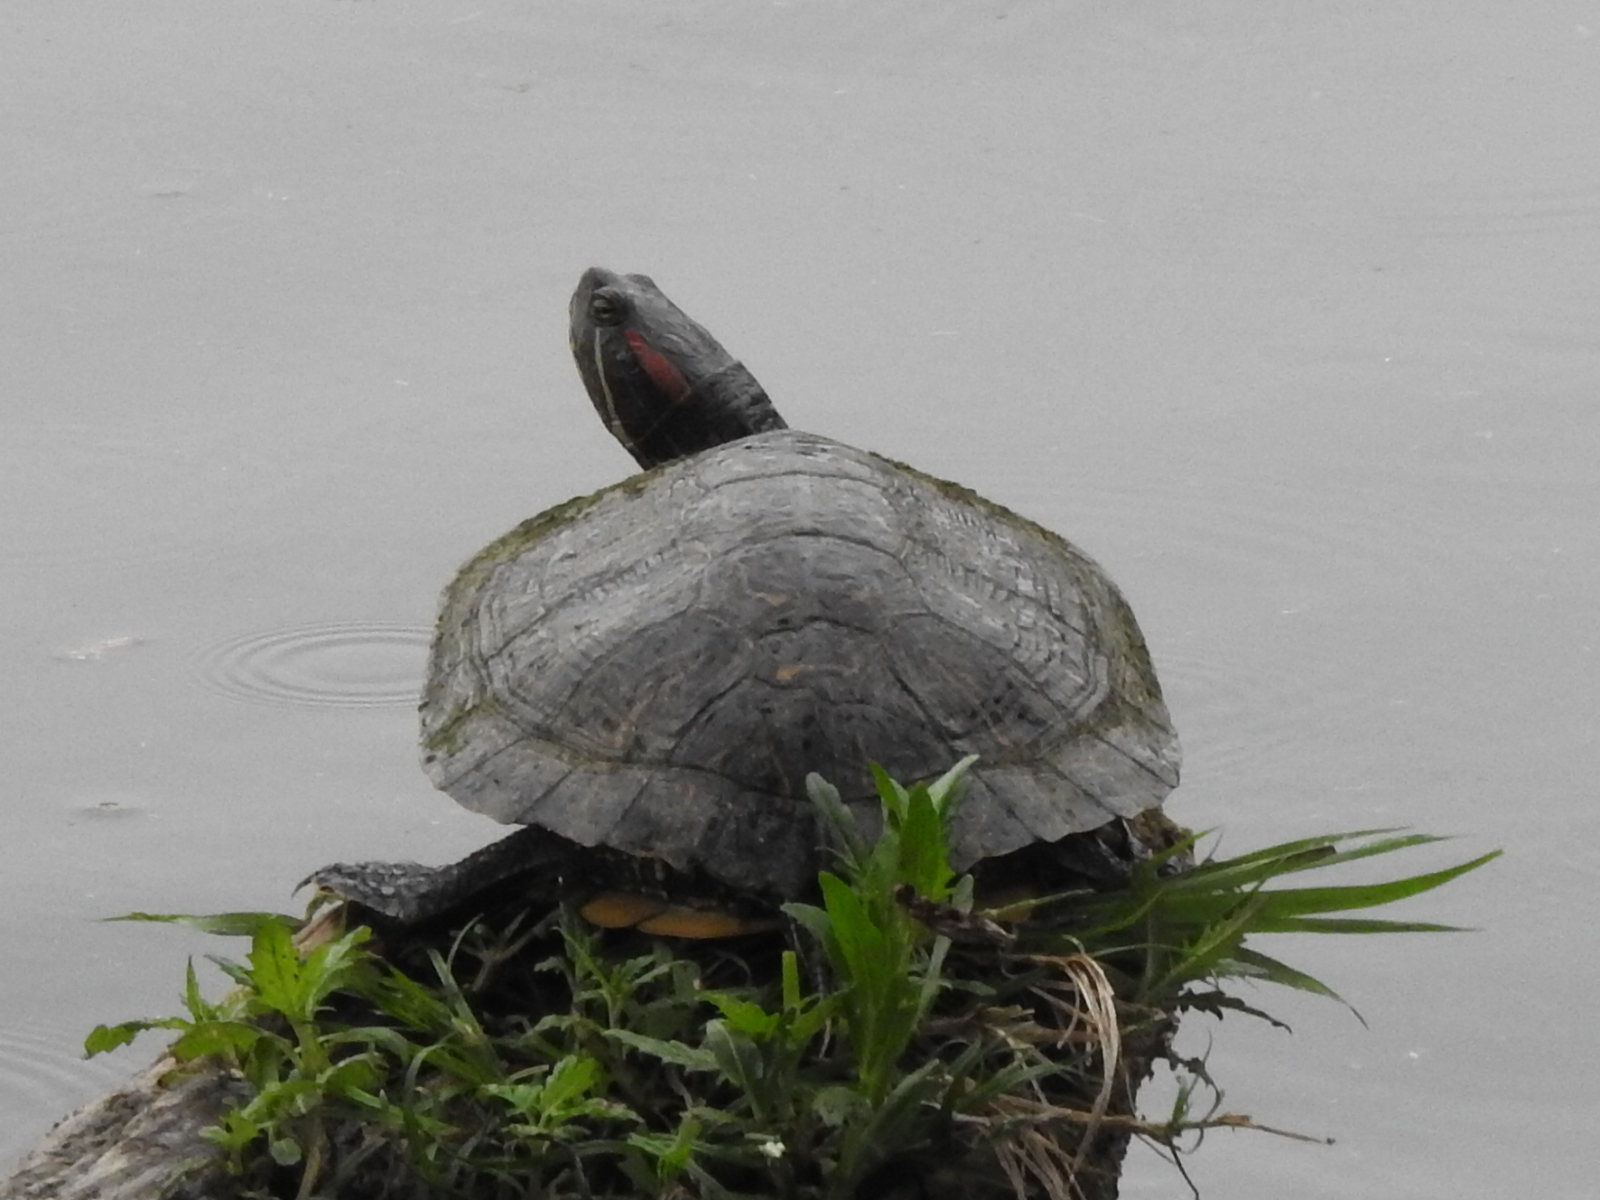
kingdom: Animalia
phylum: Chordata
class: Testudines
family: Emydidae
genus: Trachemys
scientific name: Trachemys scripta
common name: Slider
